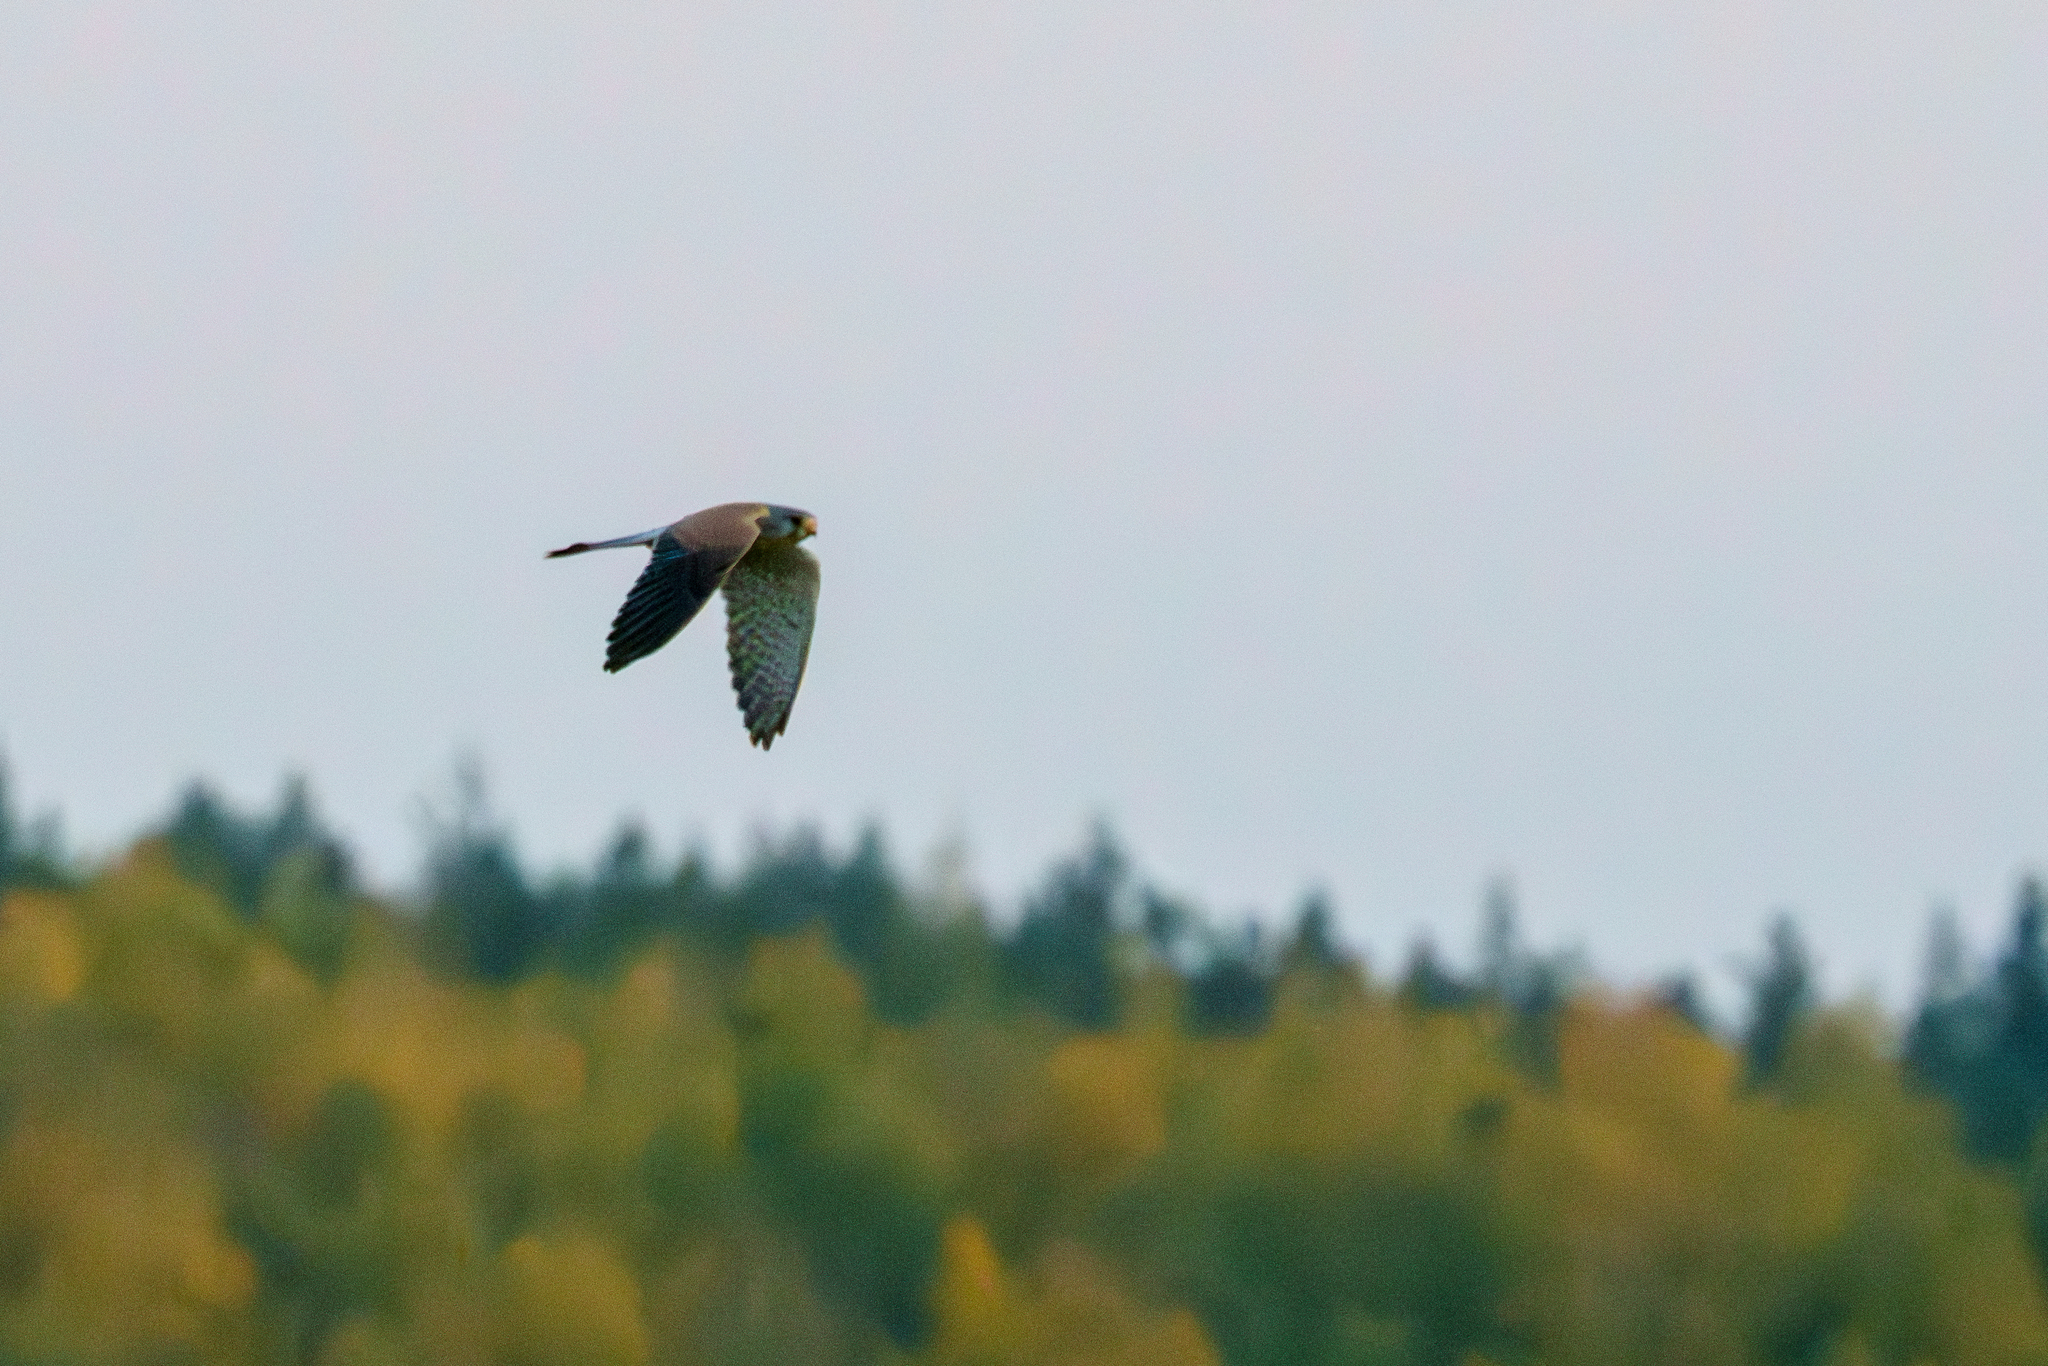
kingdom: Animalia
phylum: Chordata
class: Aves
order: Falconiformes
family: Falconidae
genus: Falco
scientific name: Falco tinnunculus
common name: Common kestrel
